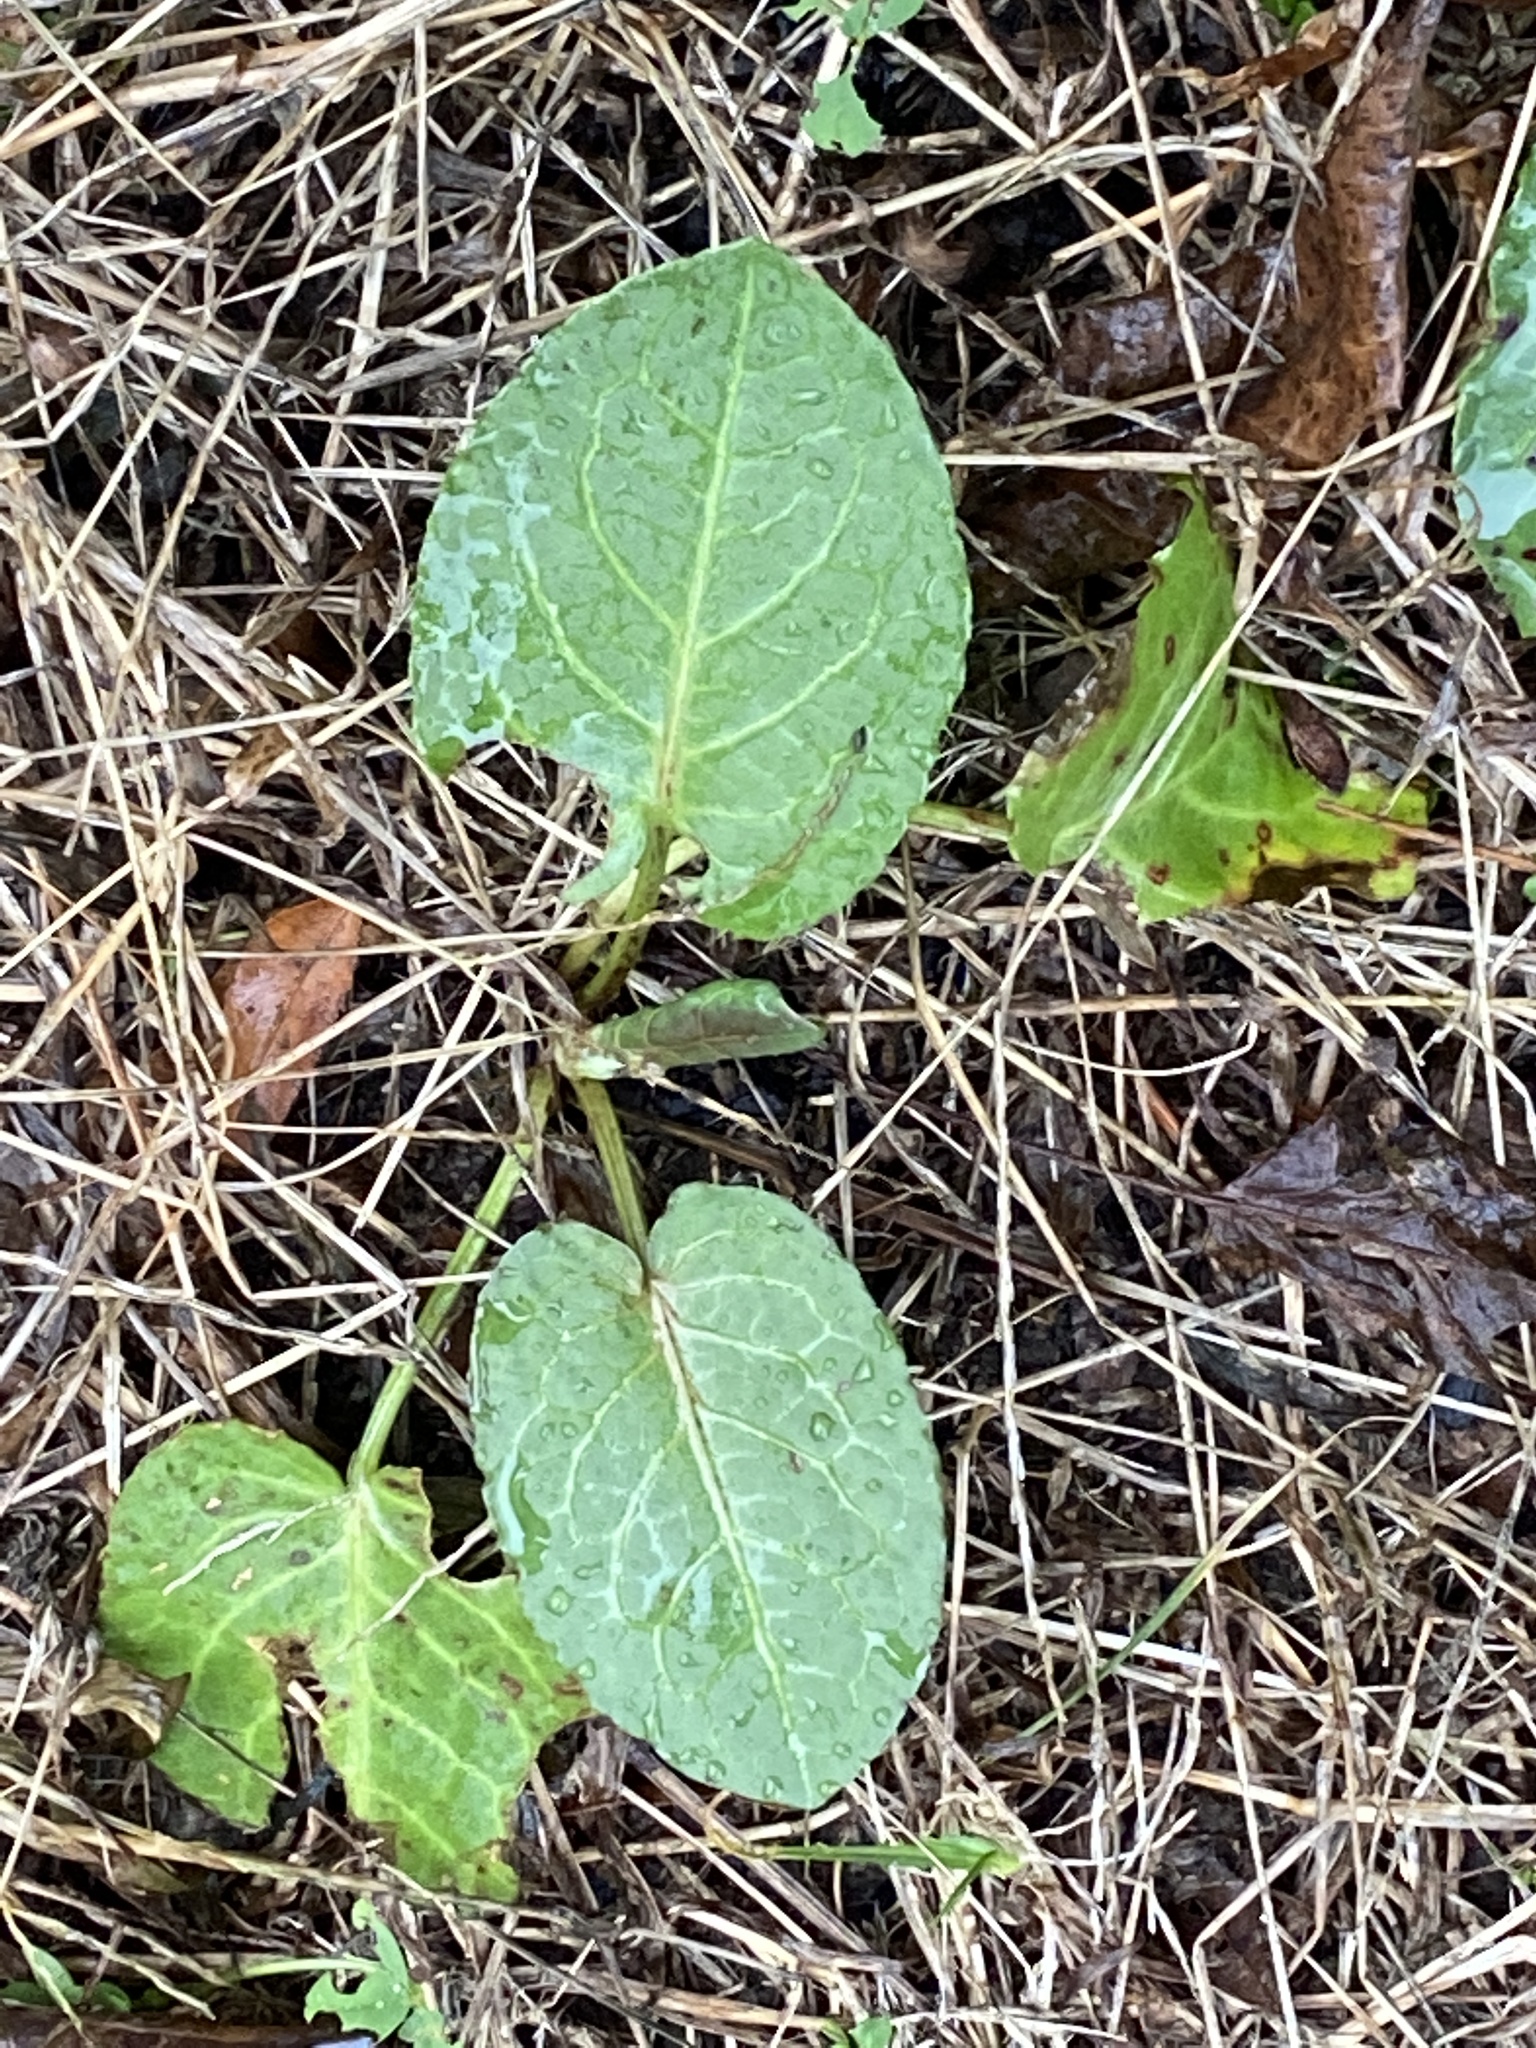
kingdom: Plantae
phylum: Tracheophyta
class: Magnoliopsida
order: Caryophyllales
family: Polygonaceae
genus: Rumex
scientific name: Rumex obtusifolius
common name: Bitter dock
